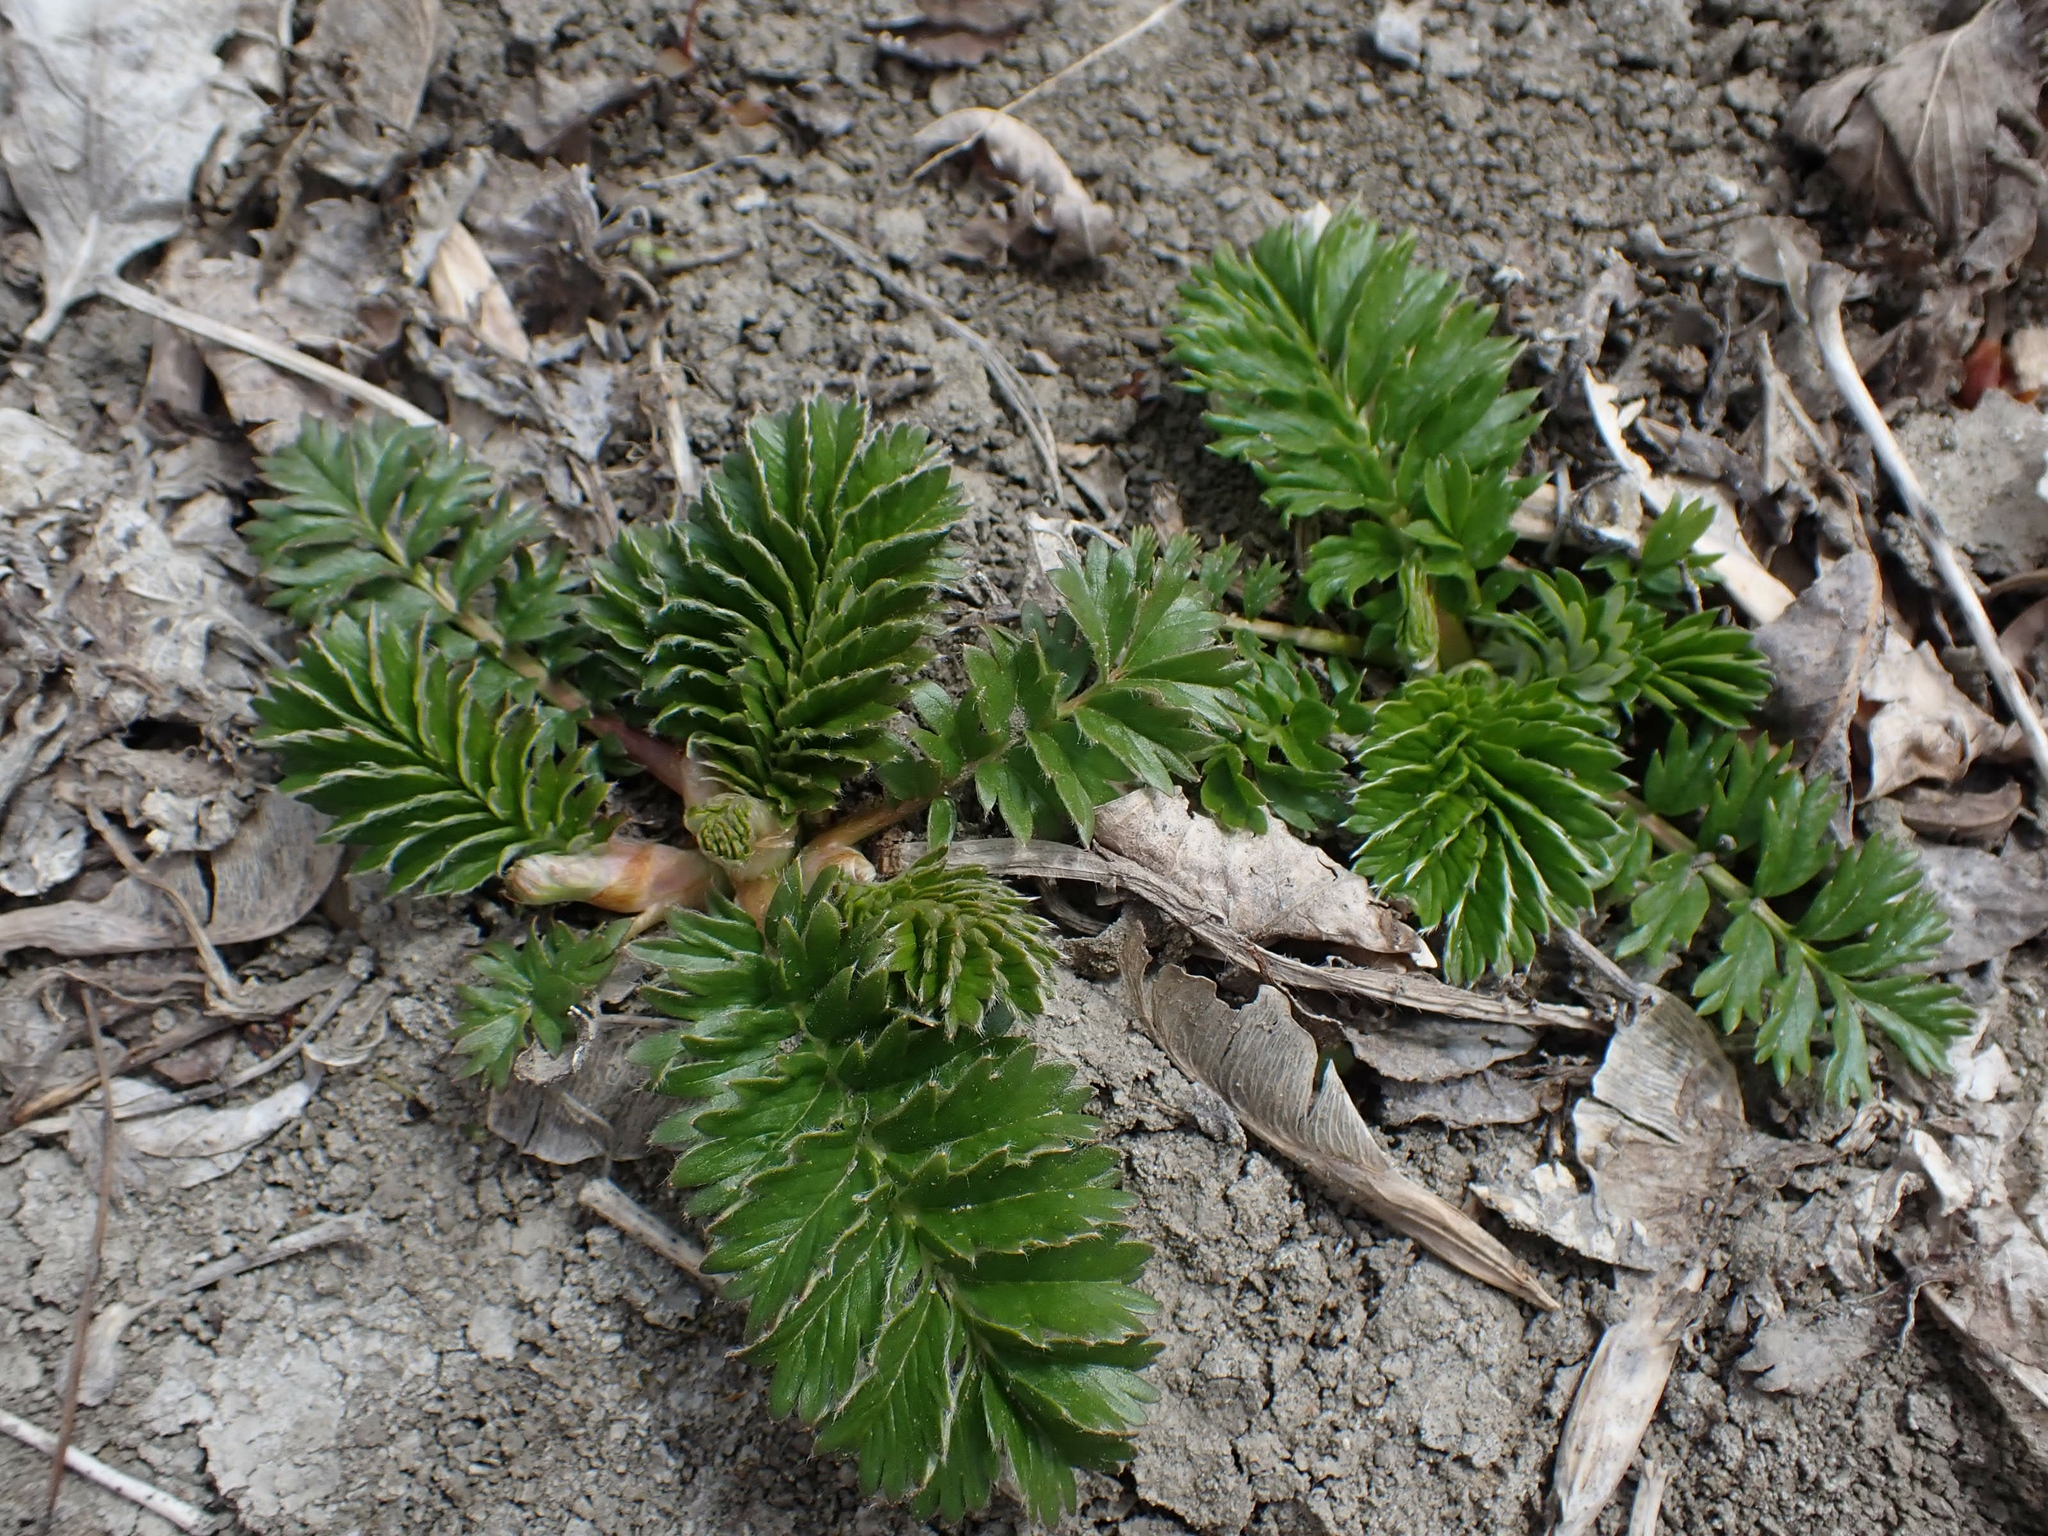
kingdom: Plantae
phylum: Tracheophyta
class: Magnoliopsida
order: Rosales
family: Rosaceae
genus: Argentina
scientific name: Argentina anserina
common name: Common silverweed
